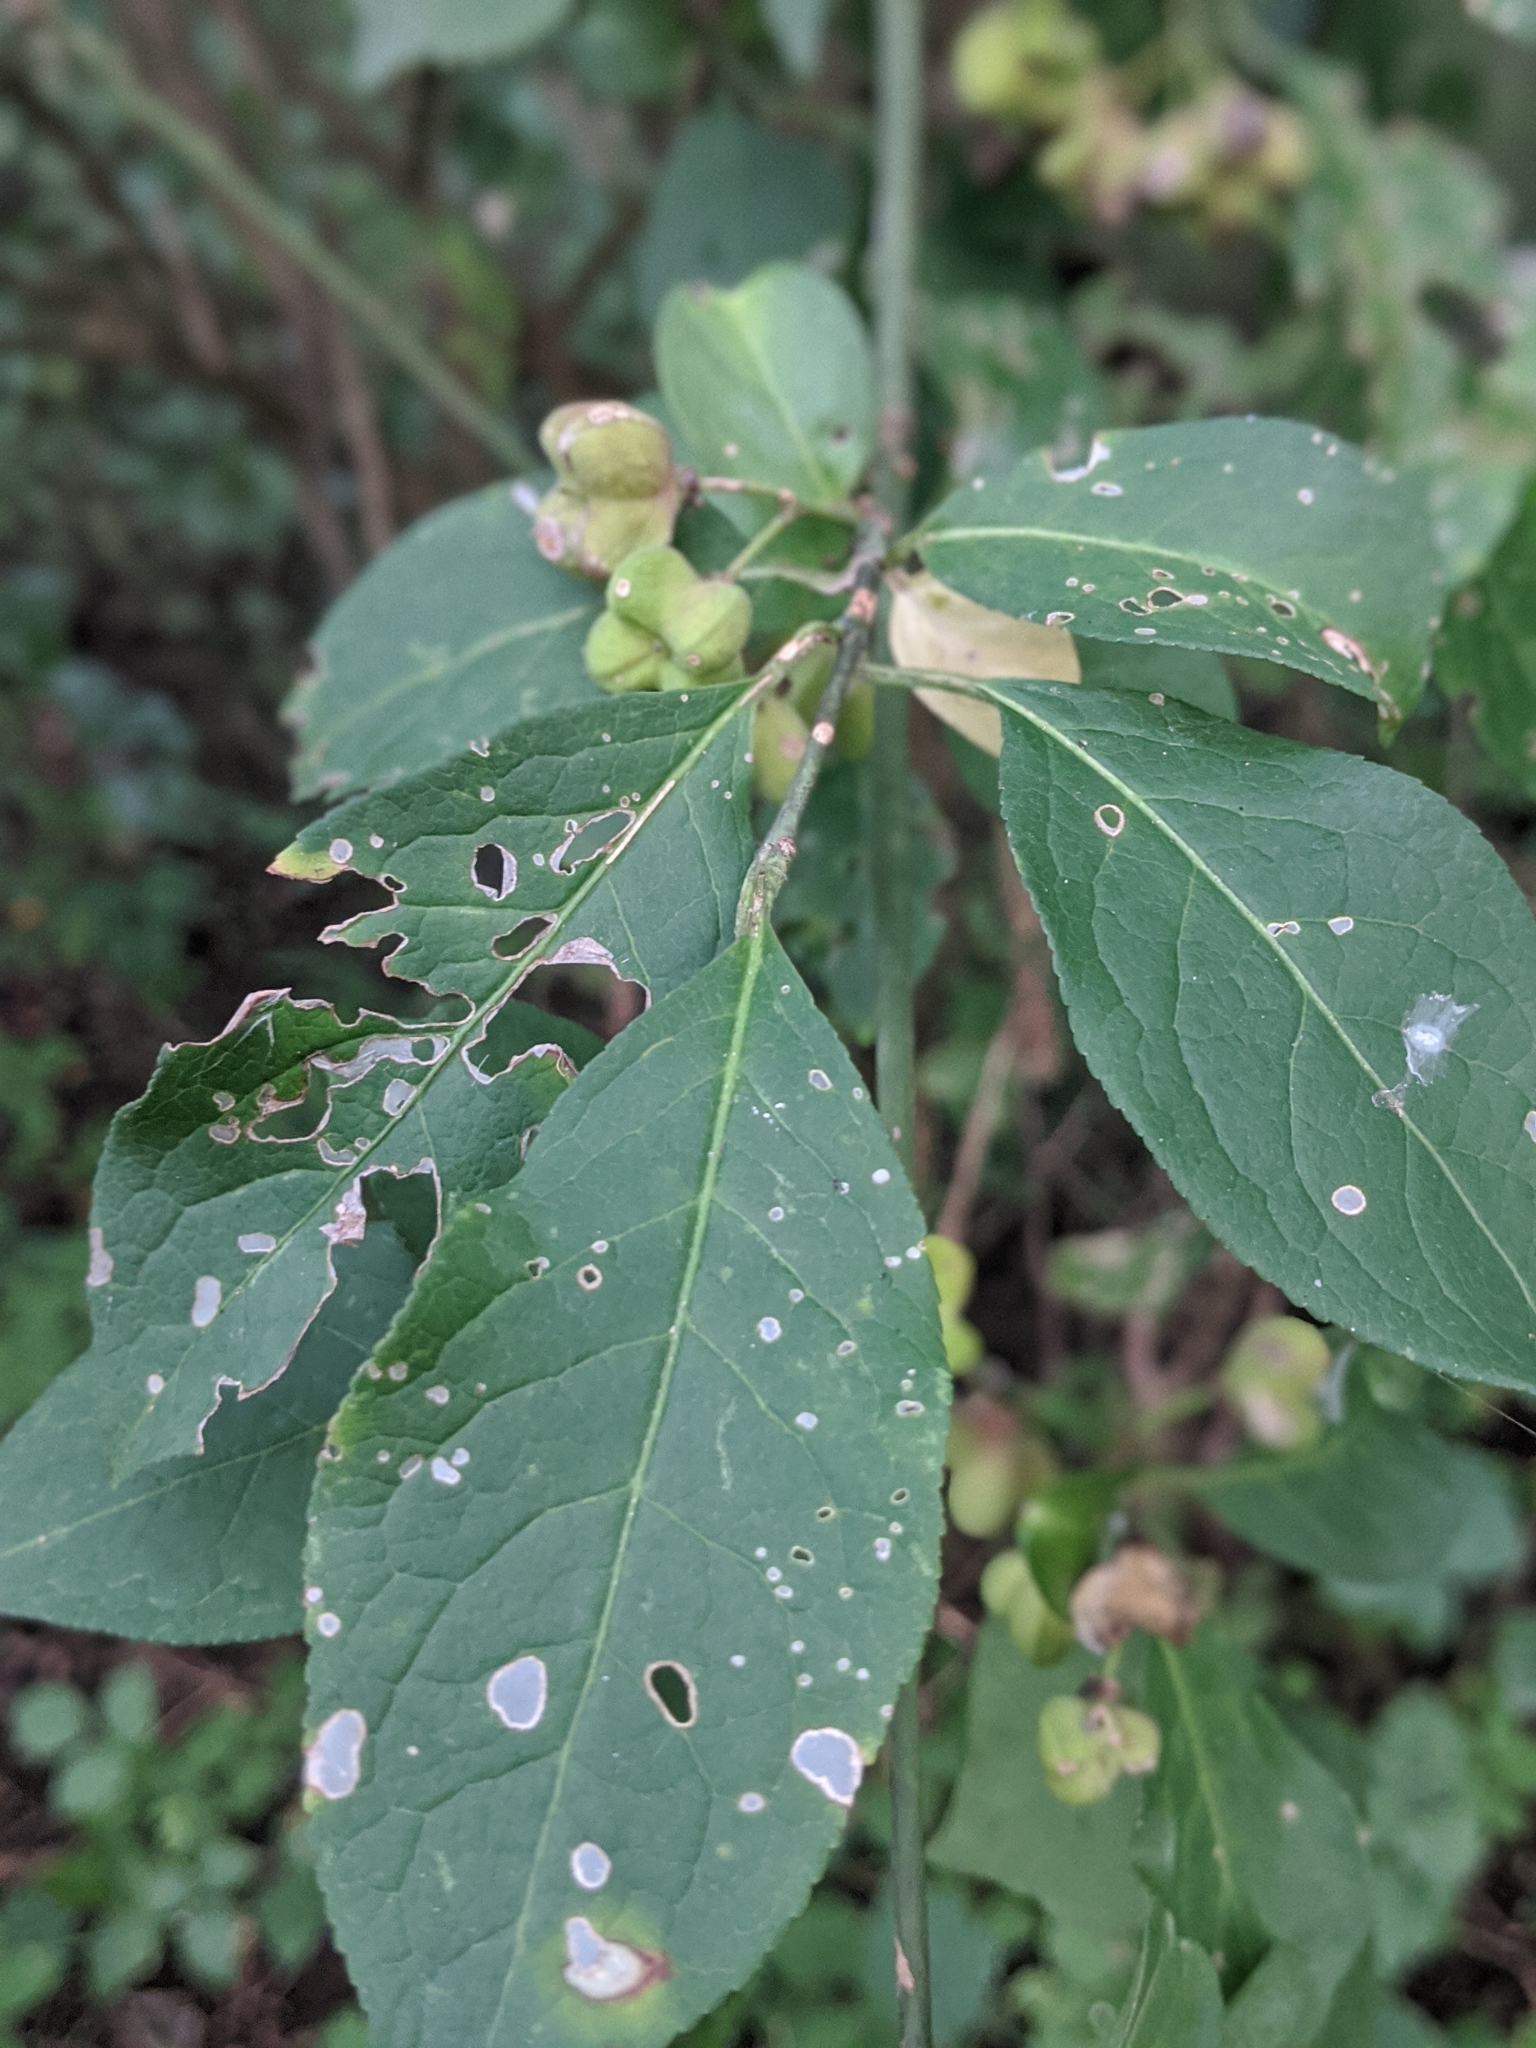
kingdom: Plantae
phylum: Tracheophyta
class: Magnoliopsida
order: Celastrales
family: Celastraceae
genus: Euonymus
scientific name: Euonymus europaeus
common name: Spindle
